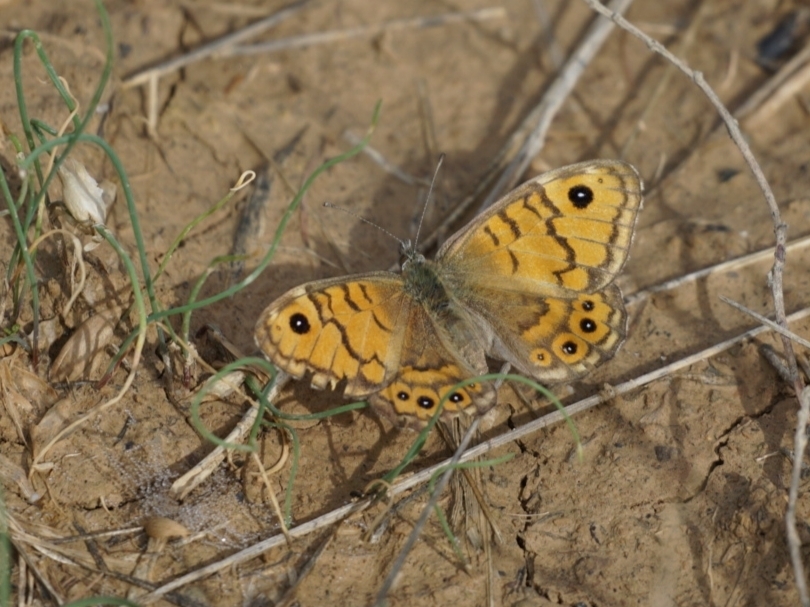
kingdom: Animalia
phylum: Arthropoda
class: Insecta
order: Lepidoptera
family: Nymphalidae
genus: Pararge
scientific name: Pararge Lasiommata megera
